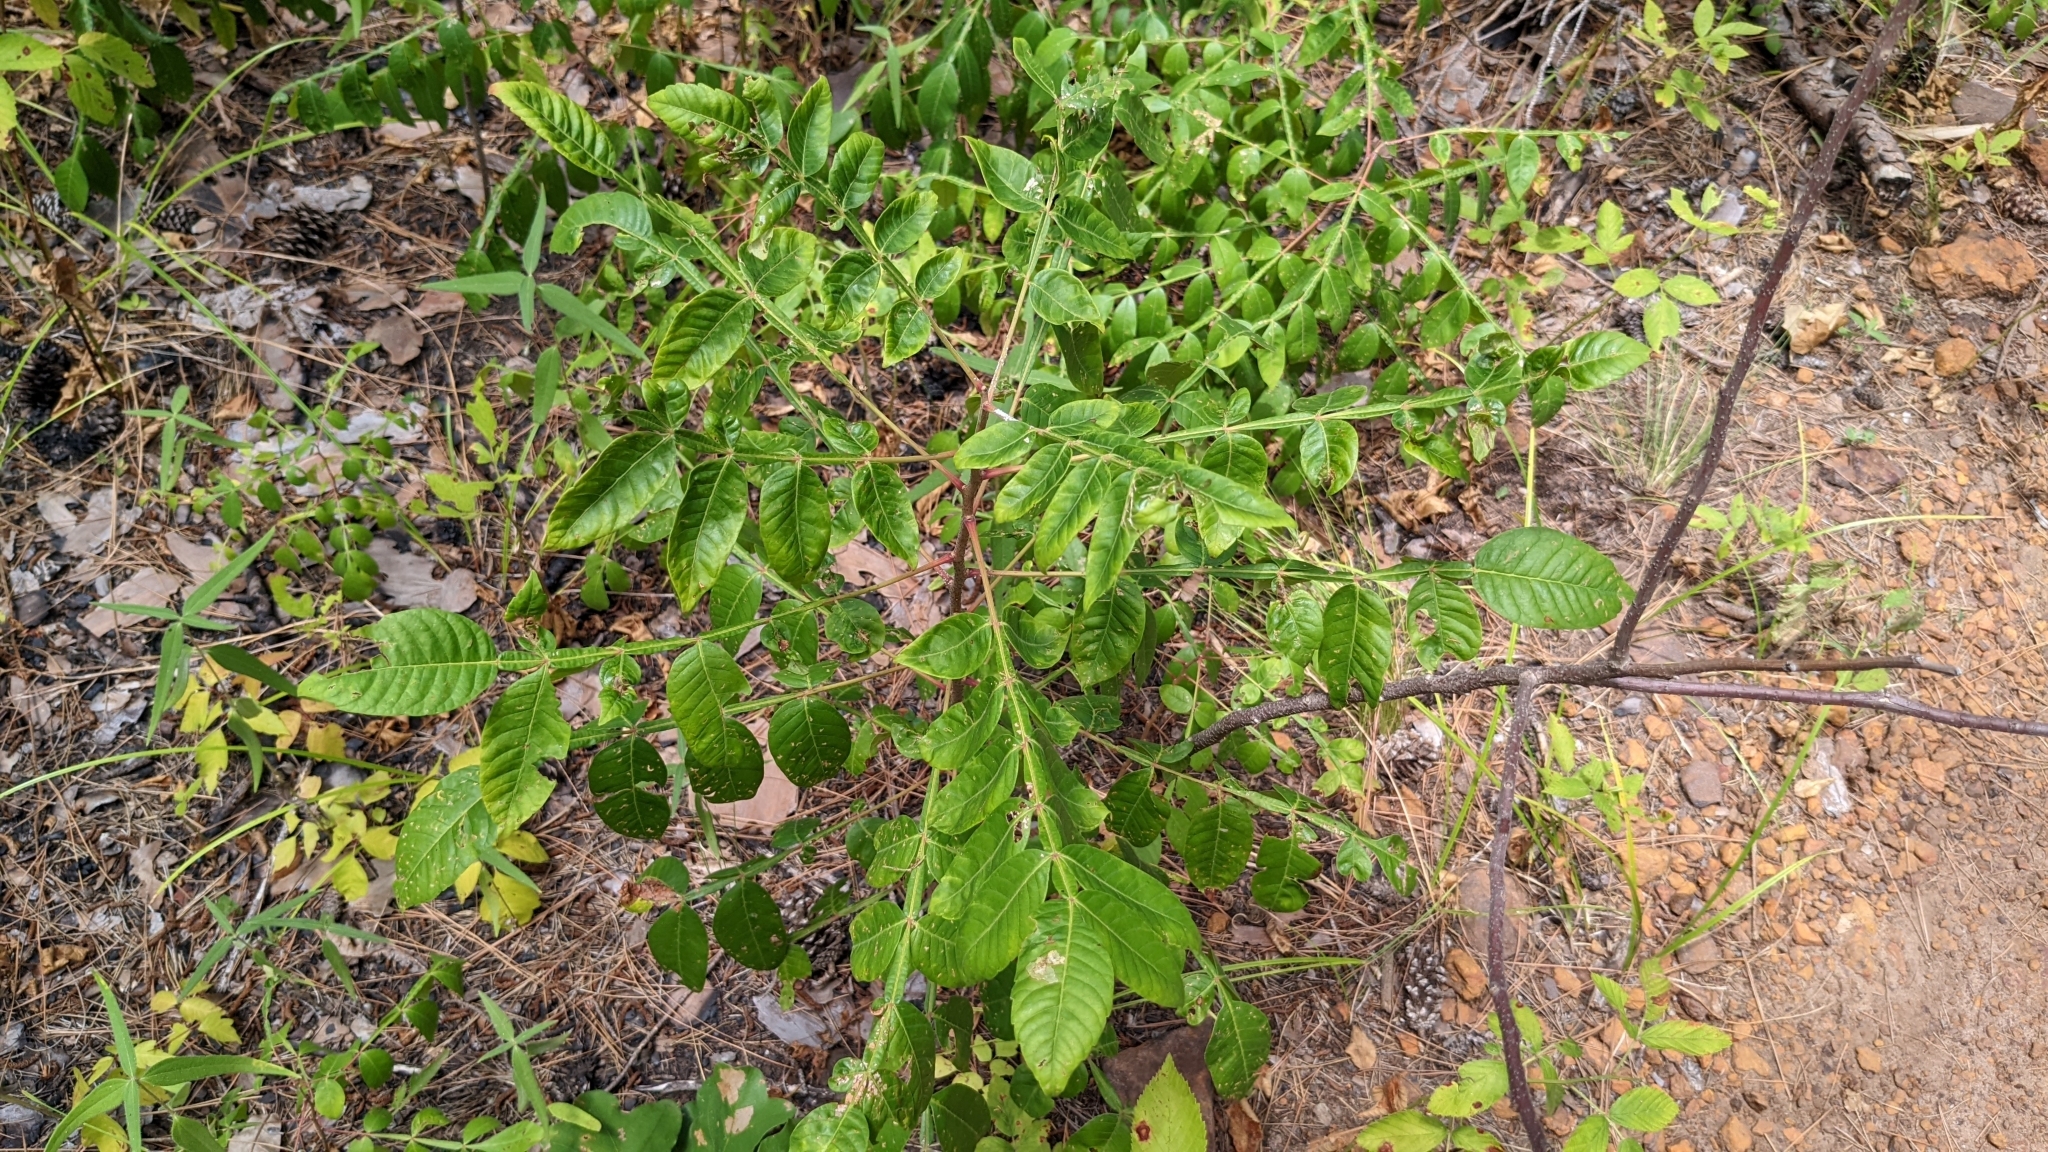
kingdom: Plantae
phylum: Tracheophyta
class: Magnoliopsida
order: Sapindales
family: Anacardiaceae
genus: Rhus
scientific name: Rhus copallina
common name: Shining sumac
